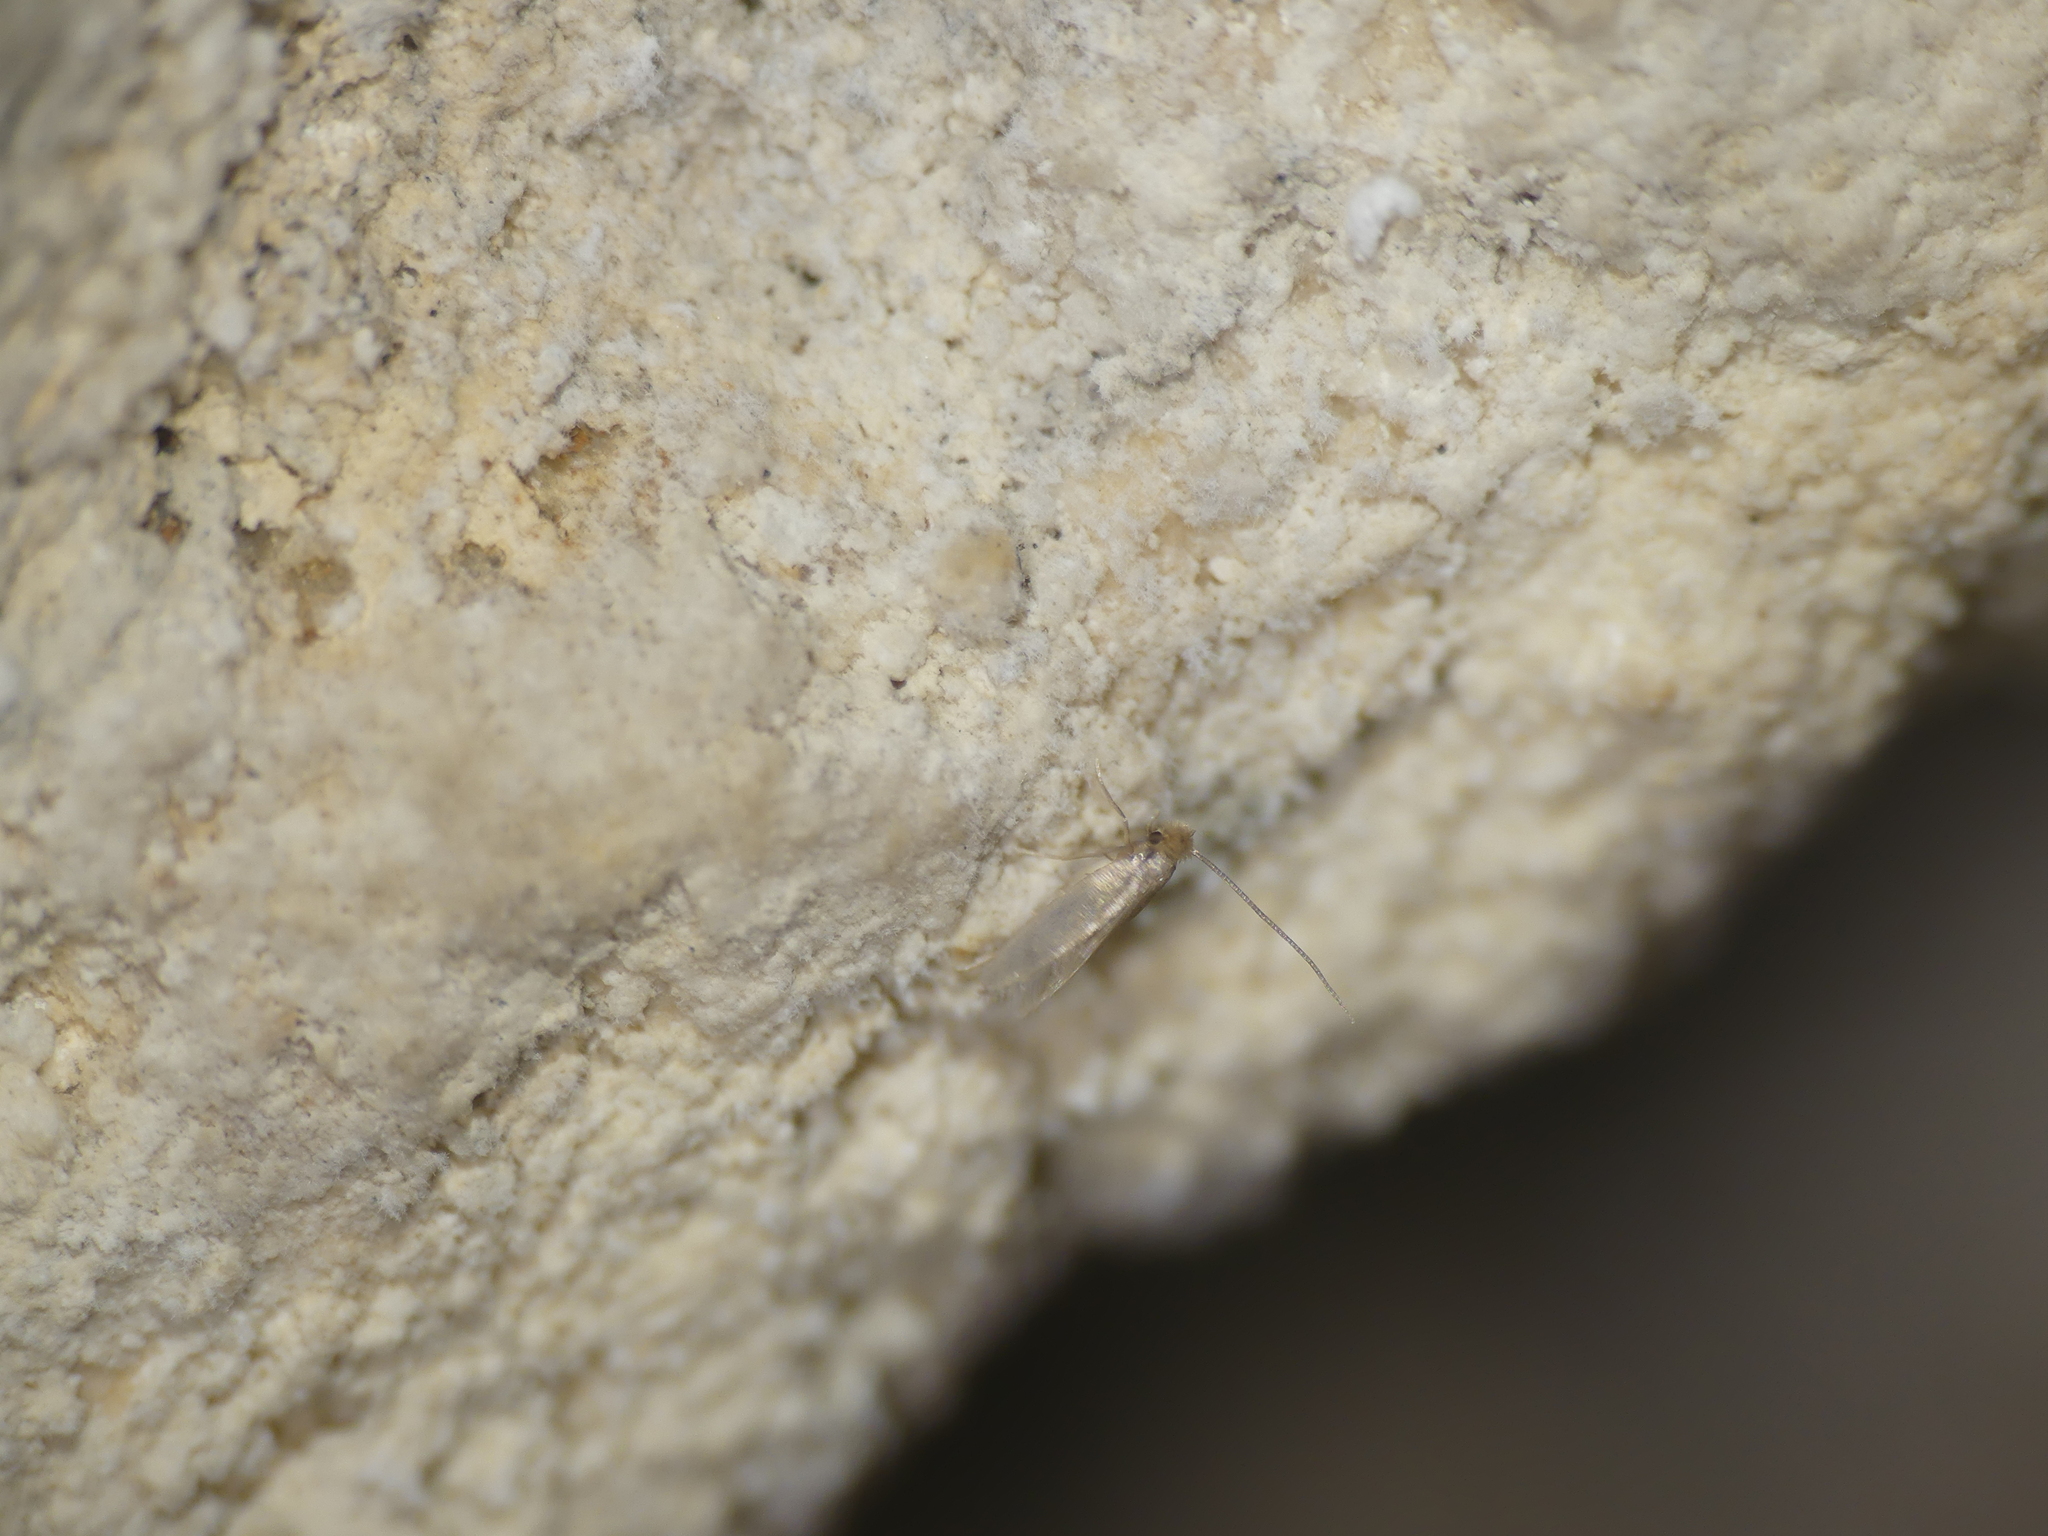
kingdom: Animalia
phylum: Arthropoda
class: Insecta
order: Lepidoptera
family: Meessiidae
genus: Ischnoscia
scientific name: Ischnoscia borreonella
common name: Small clothes
